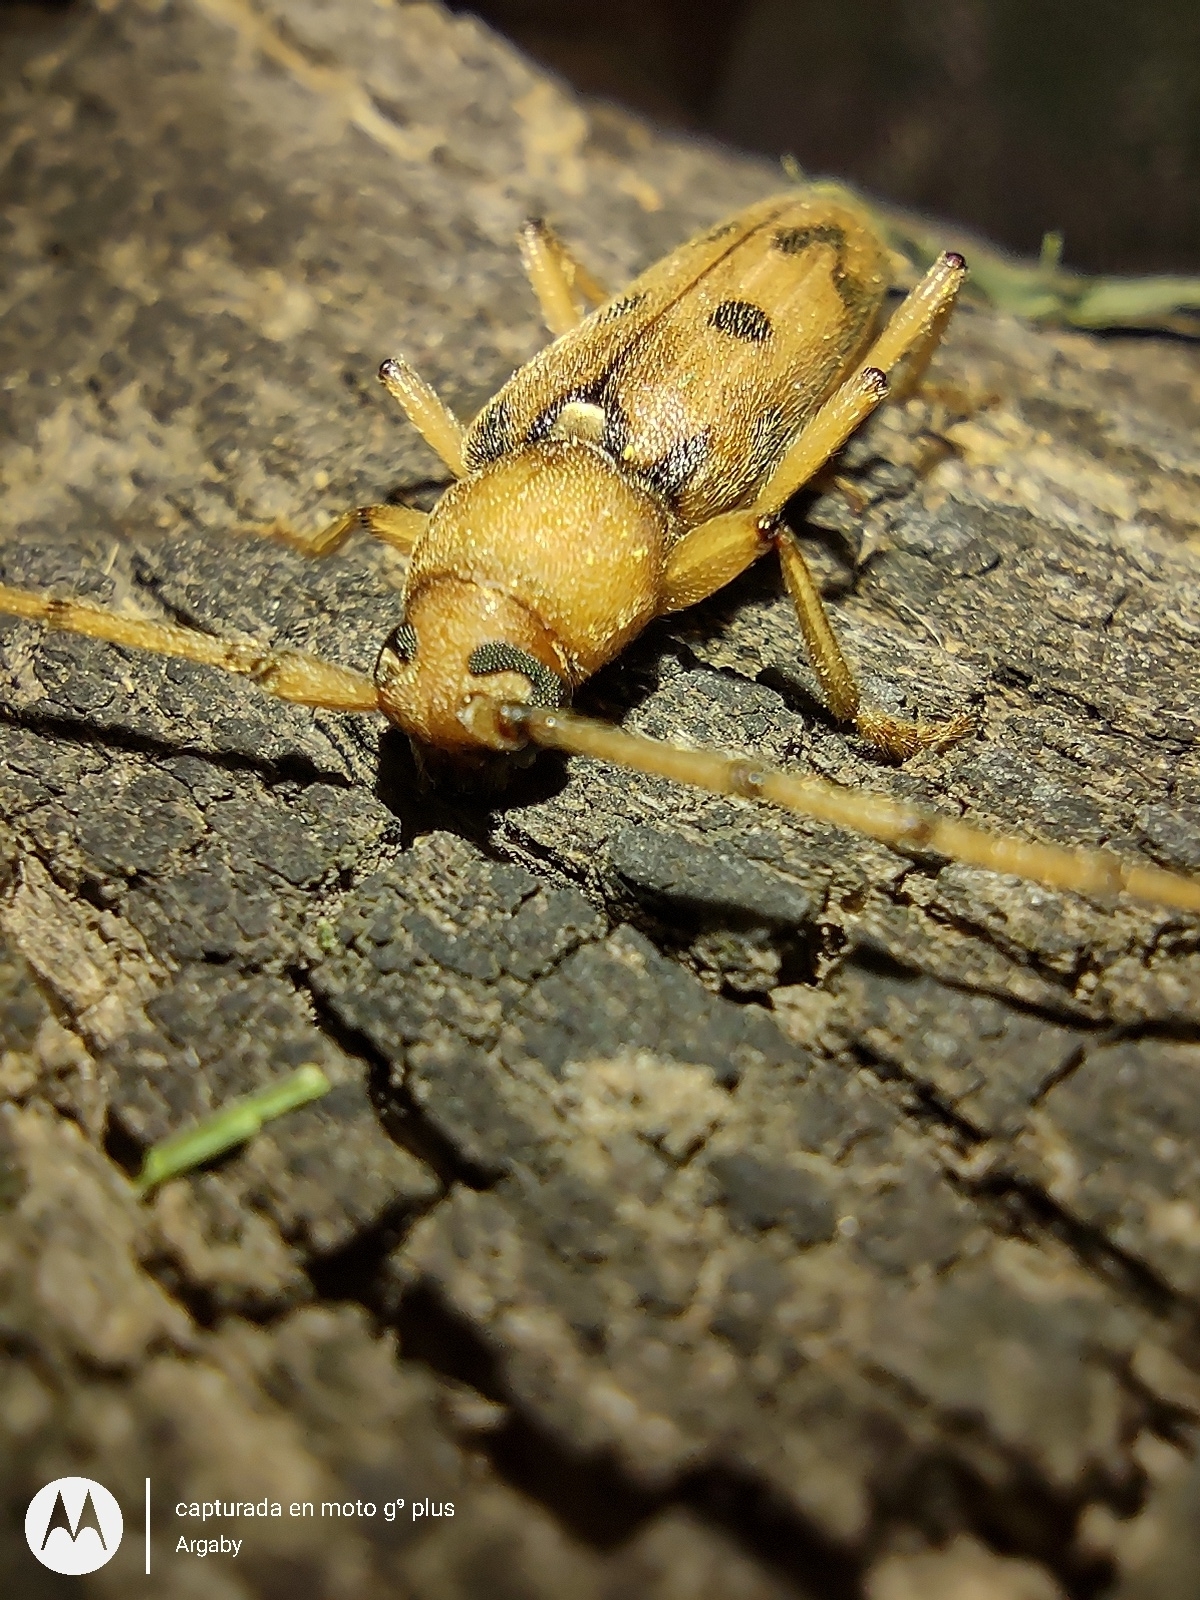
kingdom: Animalia
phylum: Arthropoda
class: Insecta
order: Coleoptera
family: Cerambycidae
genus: Achryson
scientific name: Achryson surinamum
